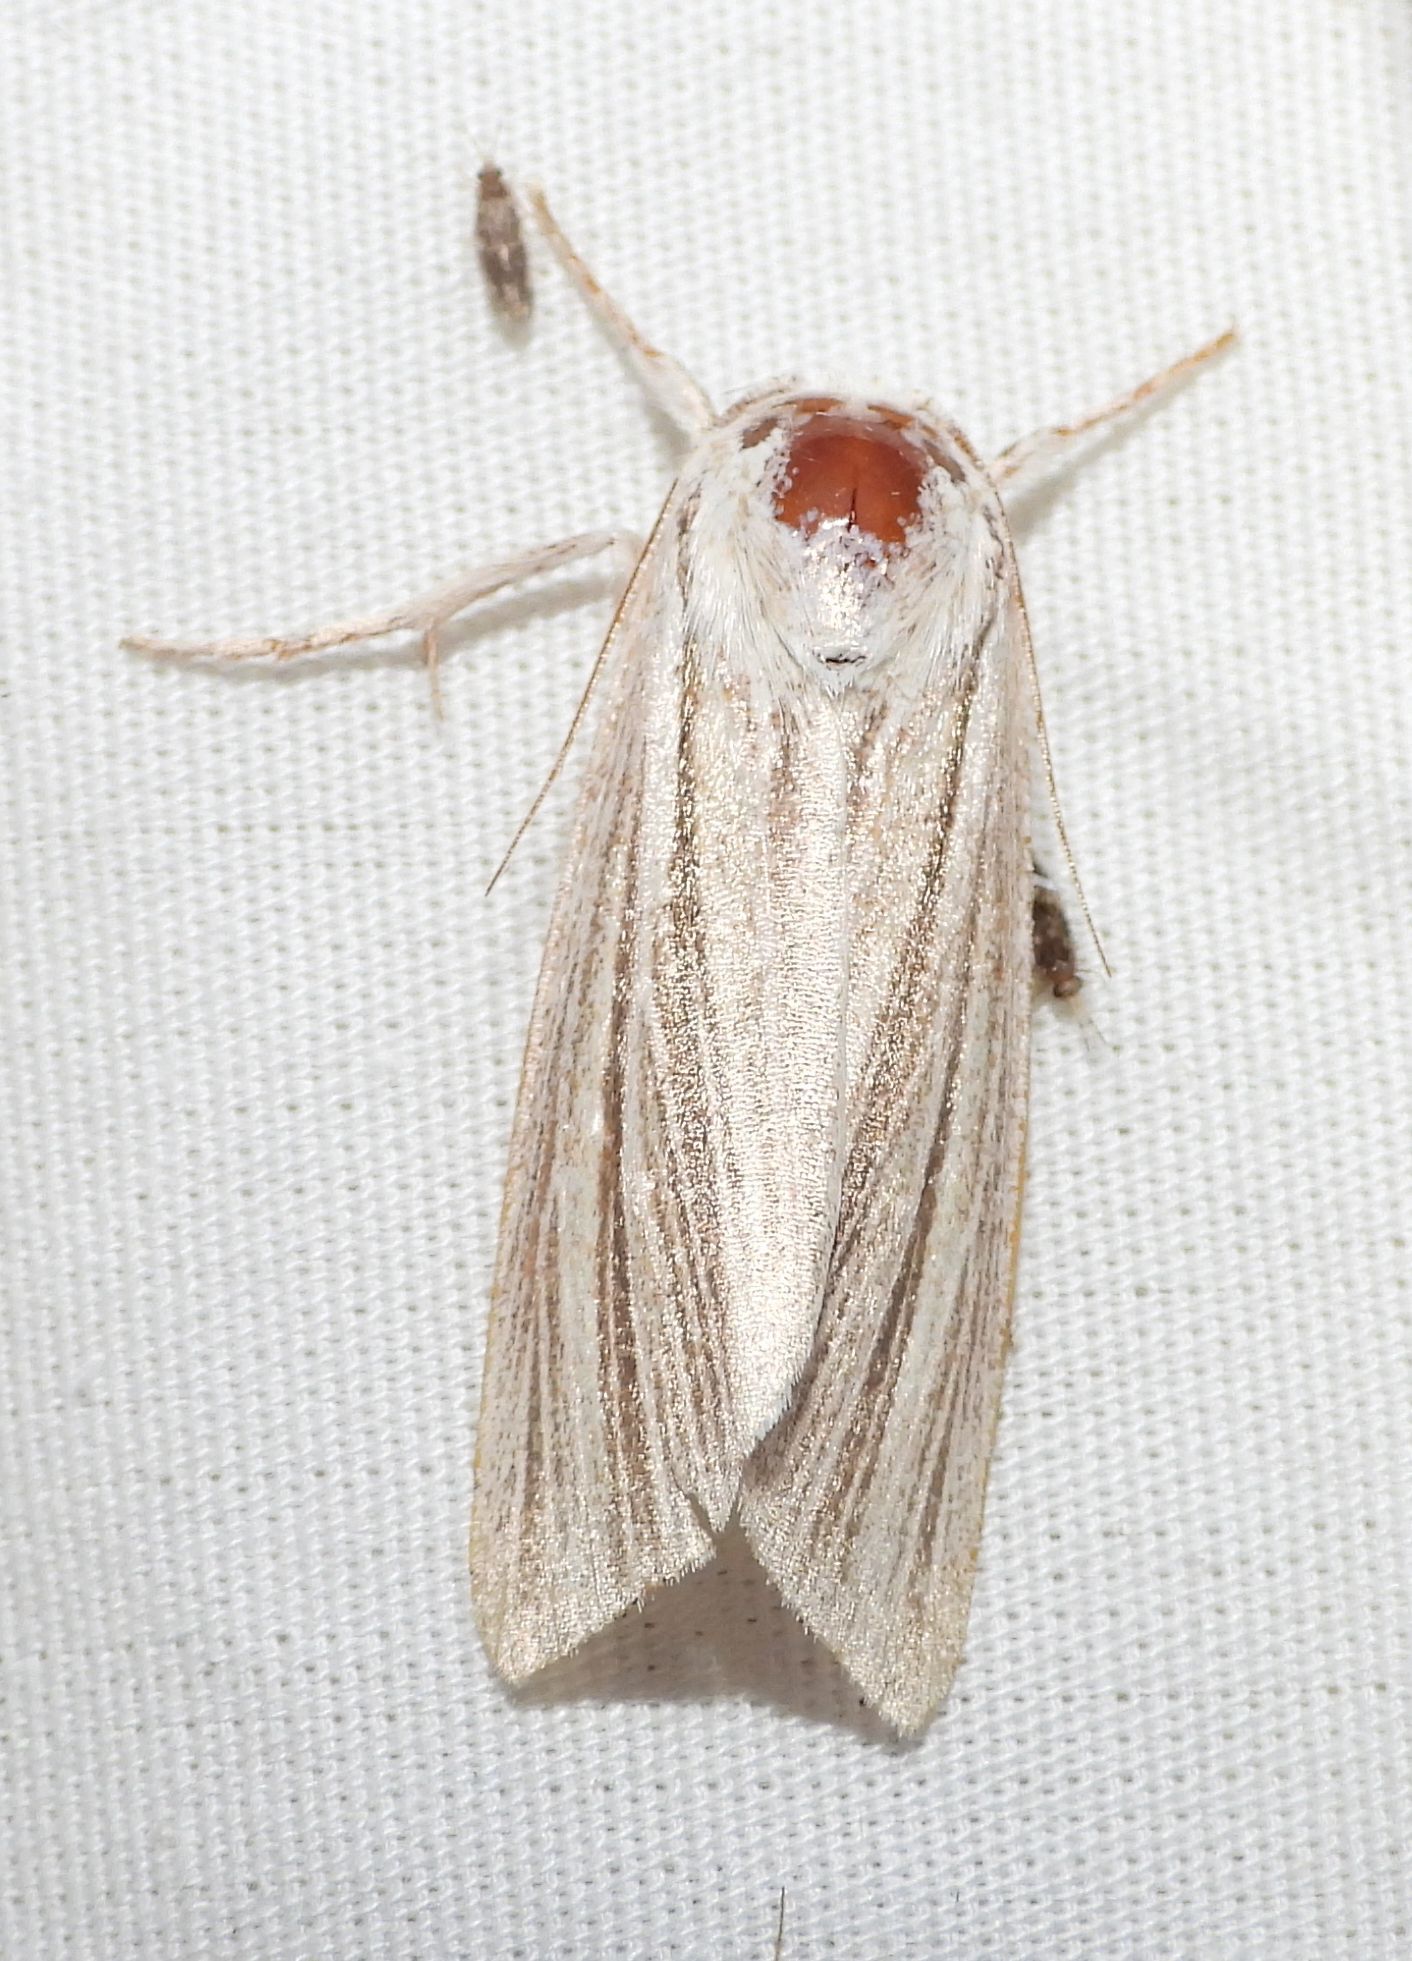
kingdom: Animalia
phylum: Arthropoda
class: Insecta
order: Lepidoptera
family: Noctuidae
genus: Acronicta
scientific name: Acronicta insularis
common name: Henry's marsh moth
